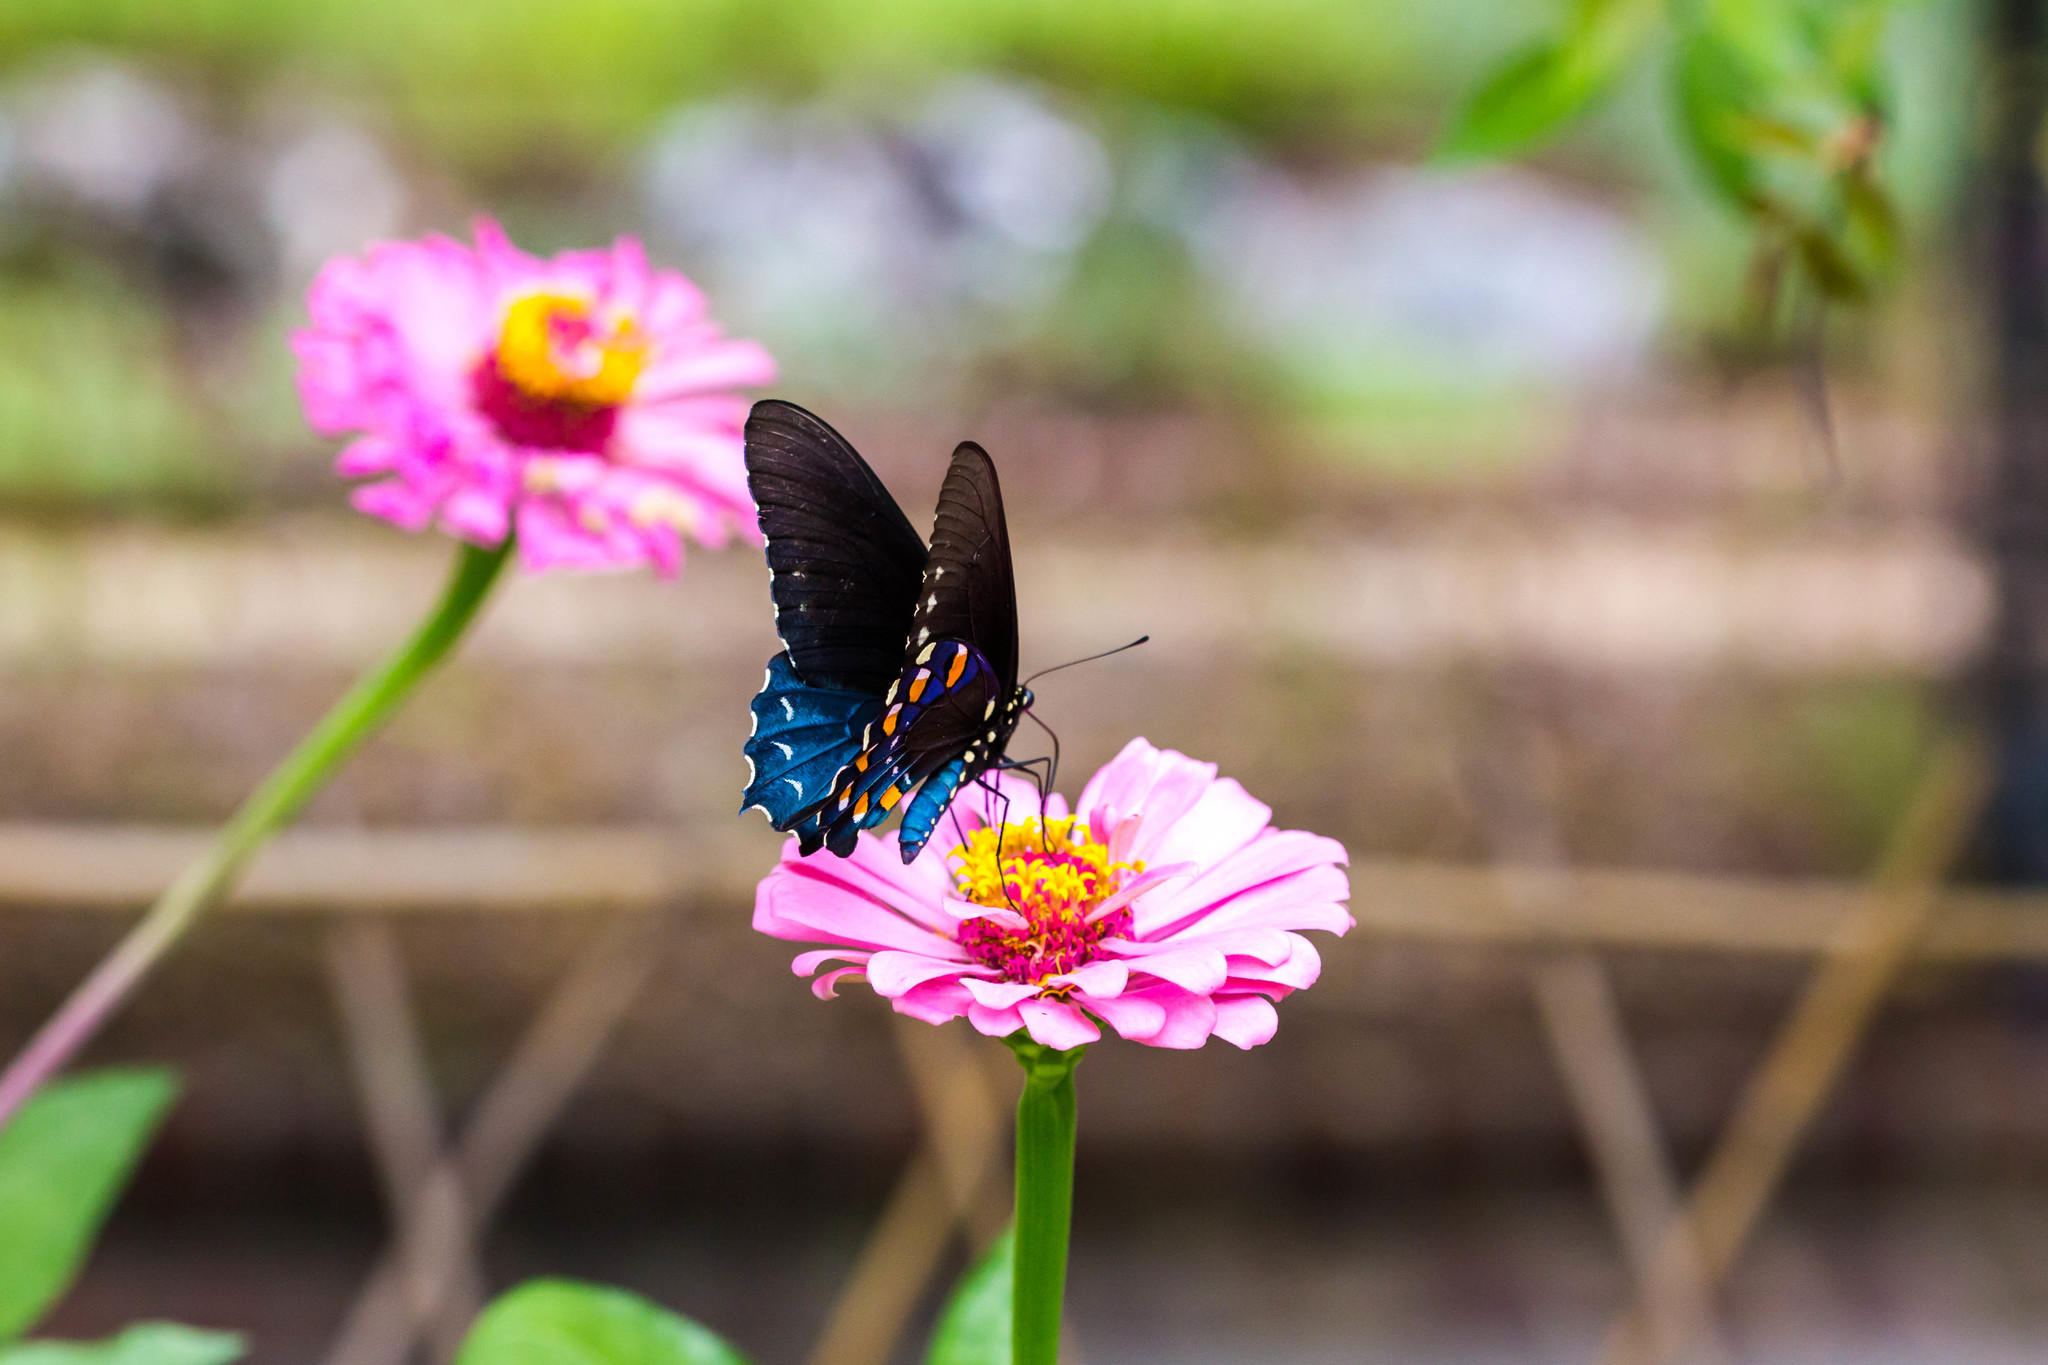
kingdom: Animalia
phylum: Arthropoda
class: Insecta
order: Lepidoptera
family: Papilionidae
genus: Battus
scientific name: Battus philenor
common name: Pipevine swallowtail
